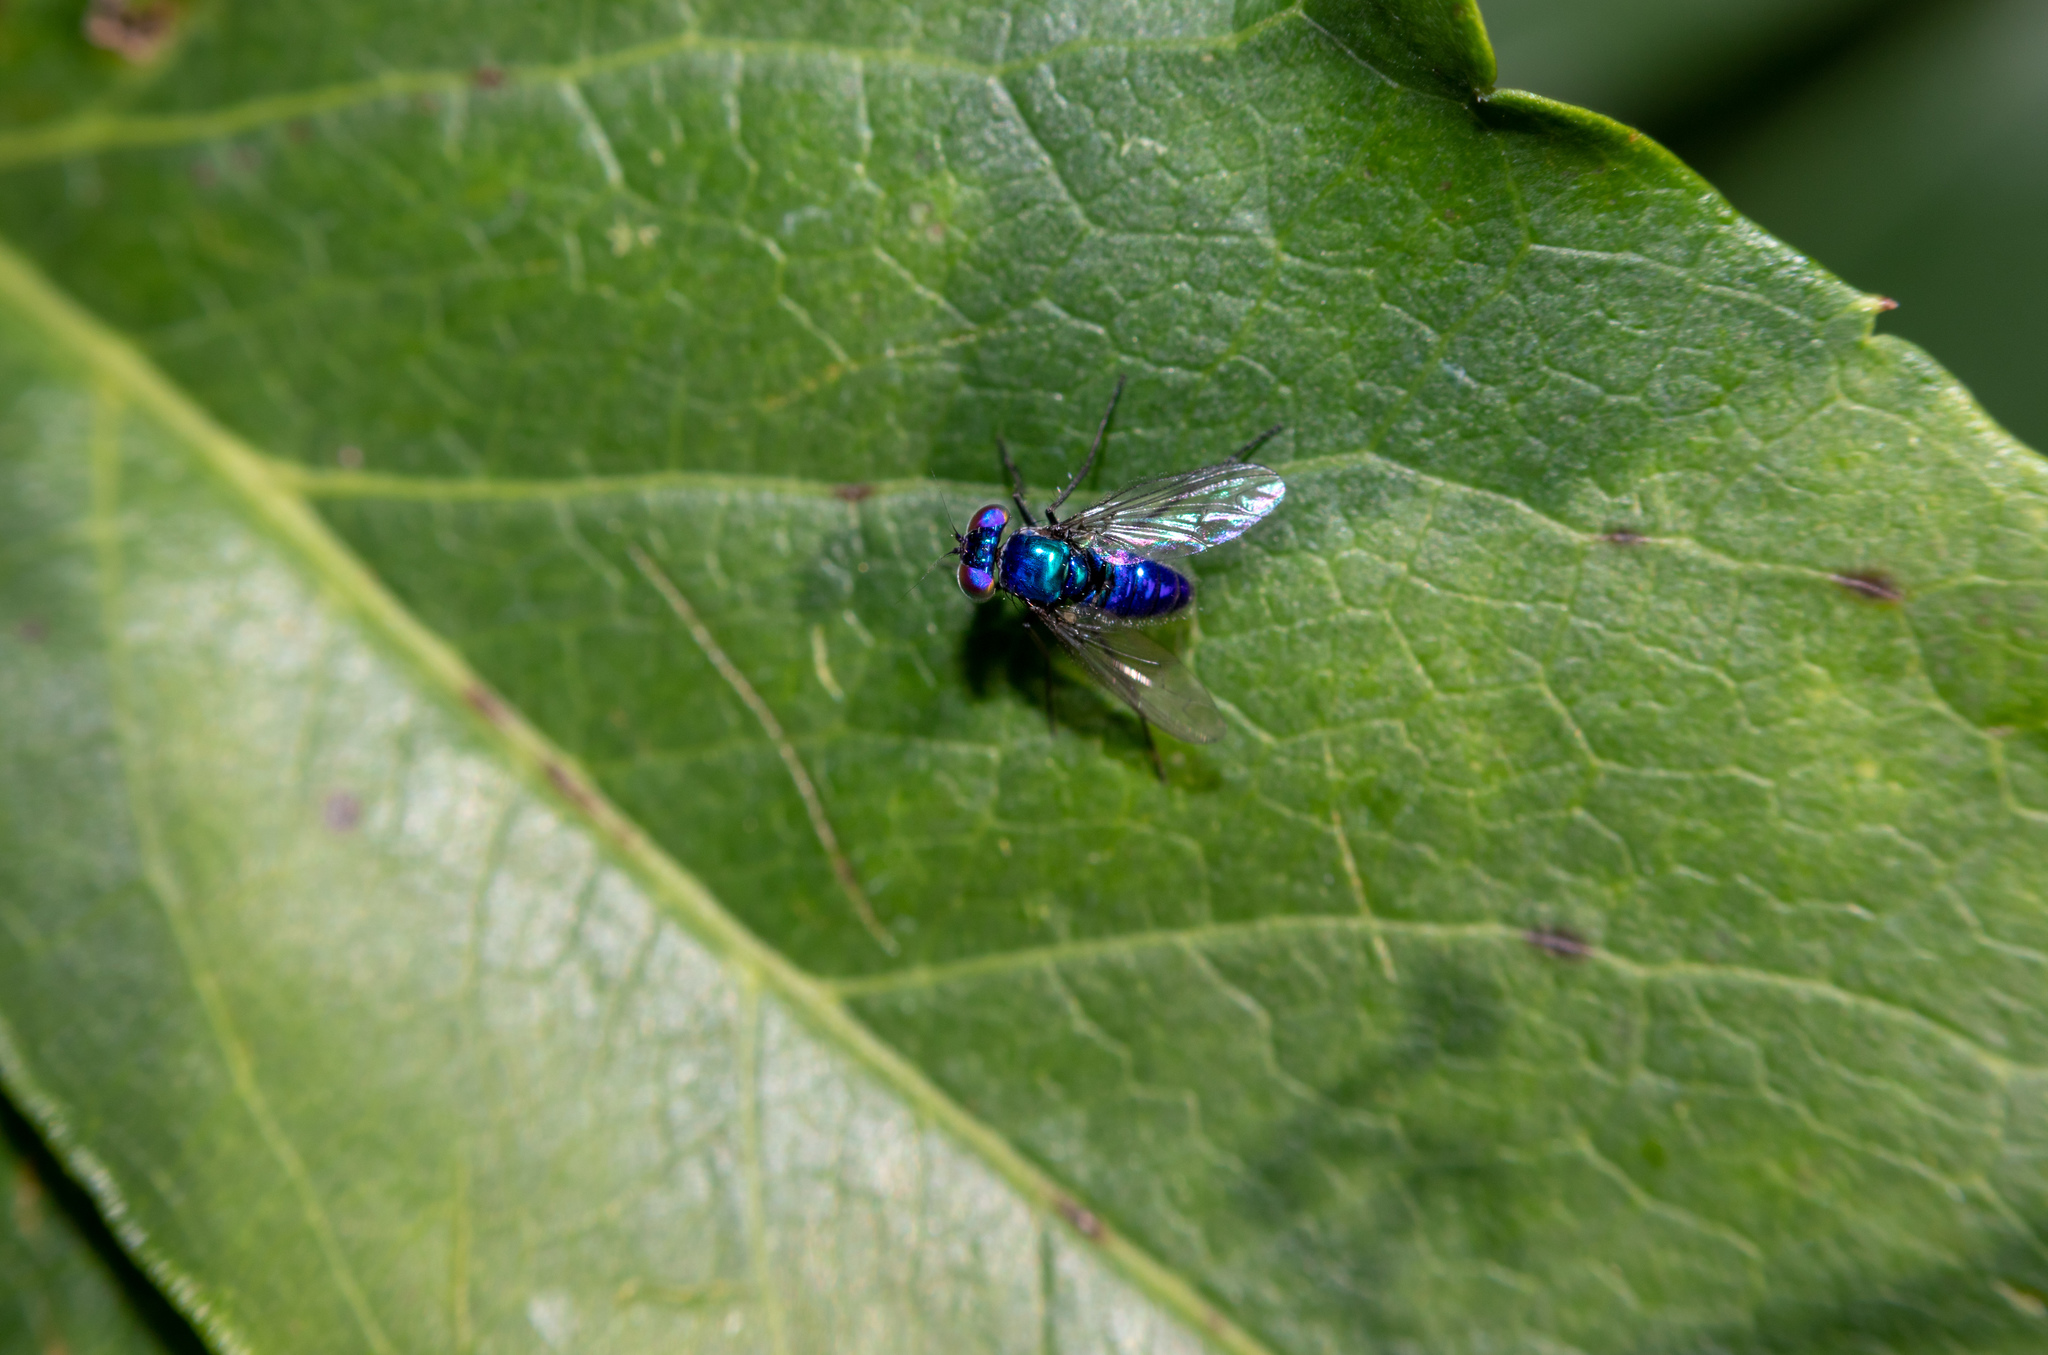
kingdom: Animalia
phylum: Arthropoda
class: Insecta
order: Diptera
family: Dolichopodidae
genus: Condylostylus
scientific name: Condylostylus mundus
